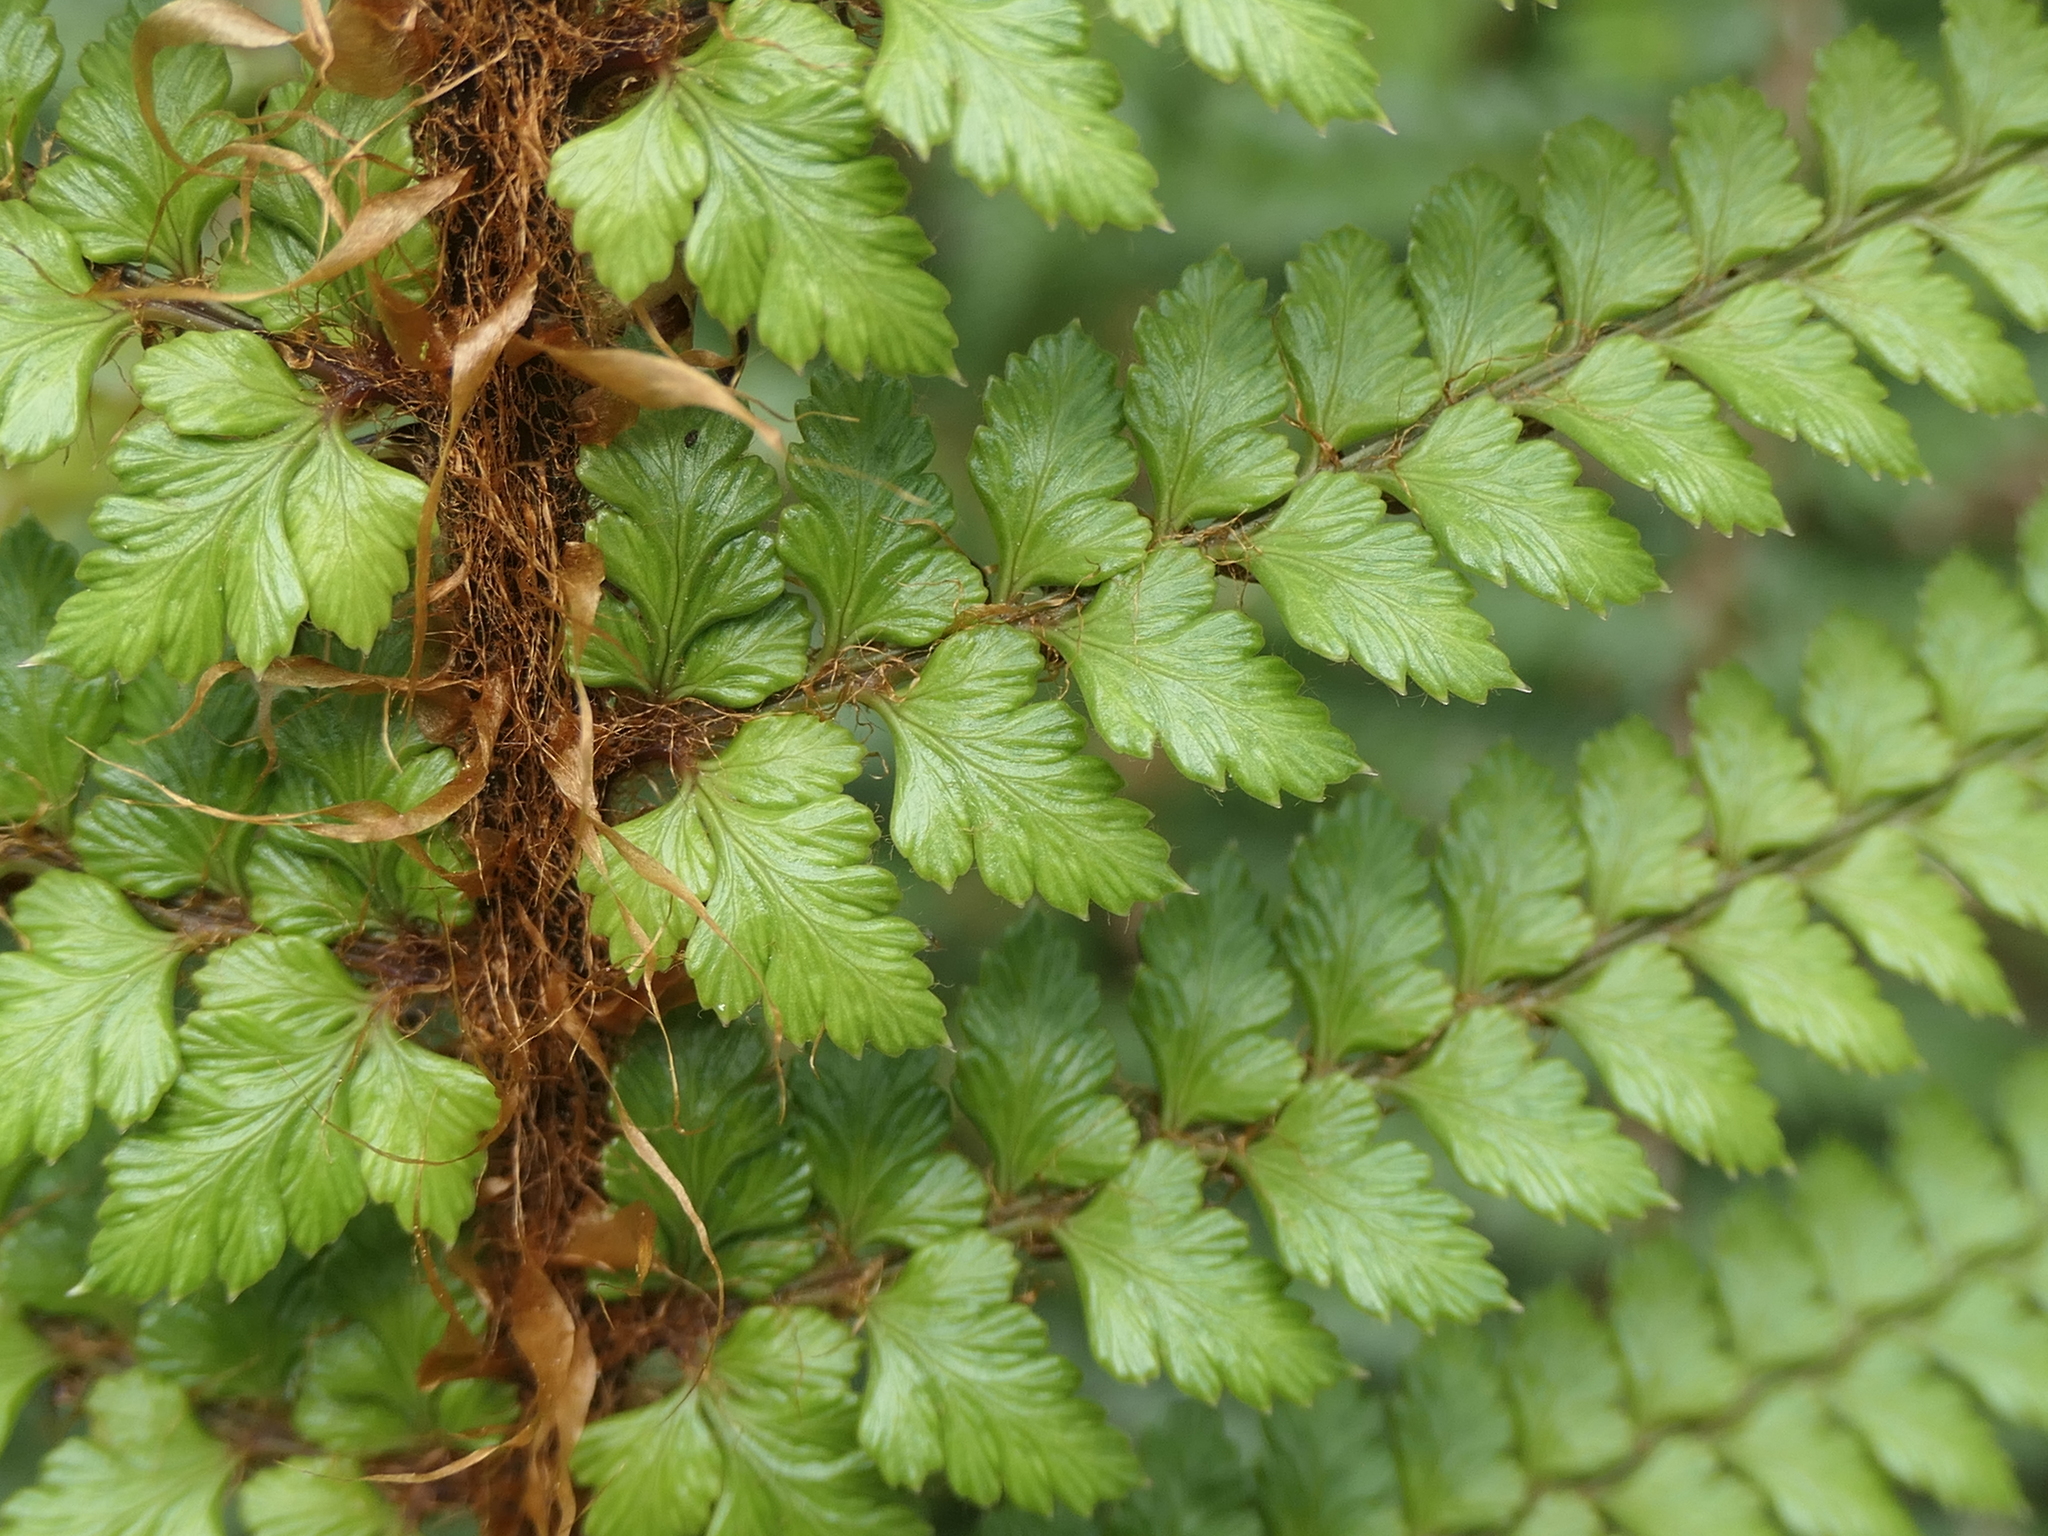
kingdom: Plantae
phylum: Tracheophyta
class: Polypodiopsida
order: Polypodiales
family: Dryopteridaceae
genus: Polystichum
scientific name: Polystichum vestitum
